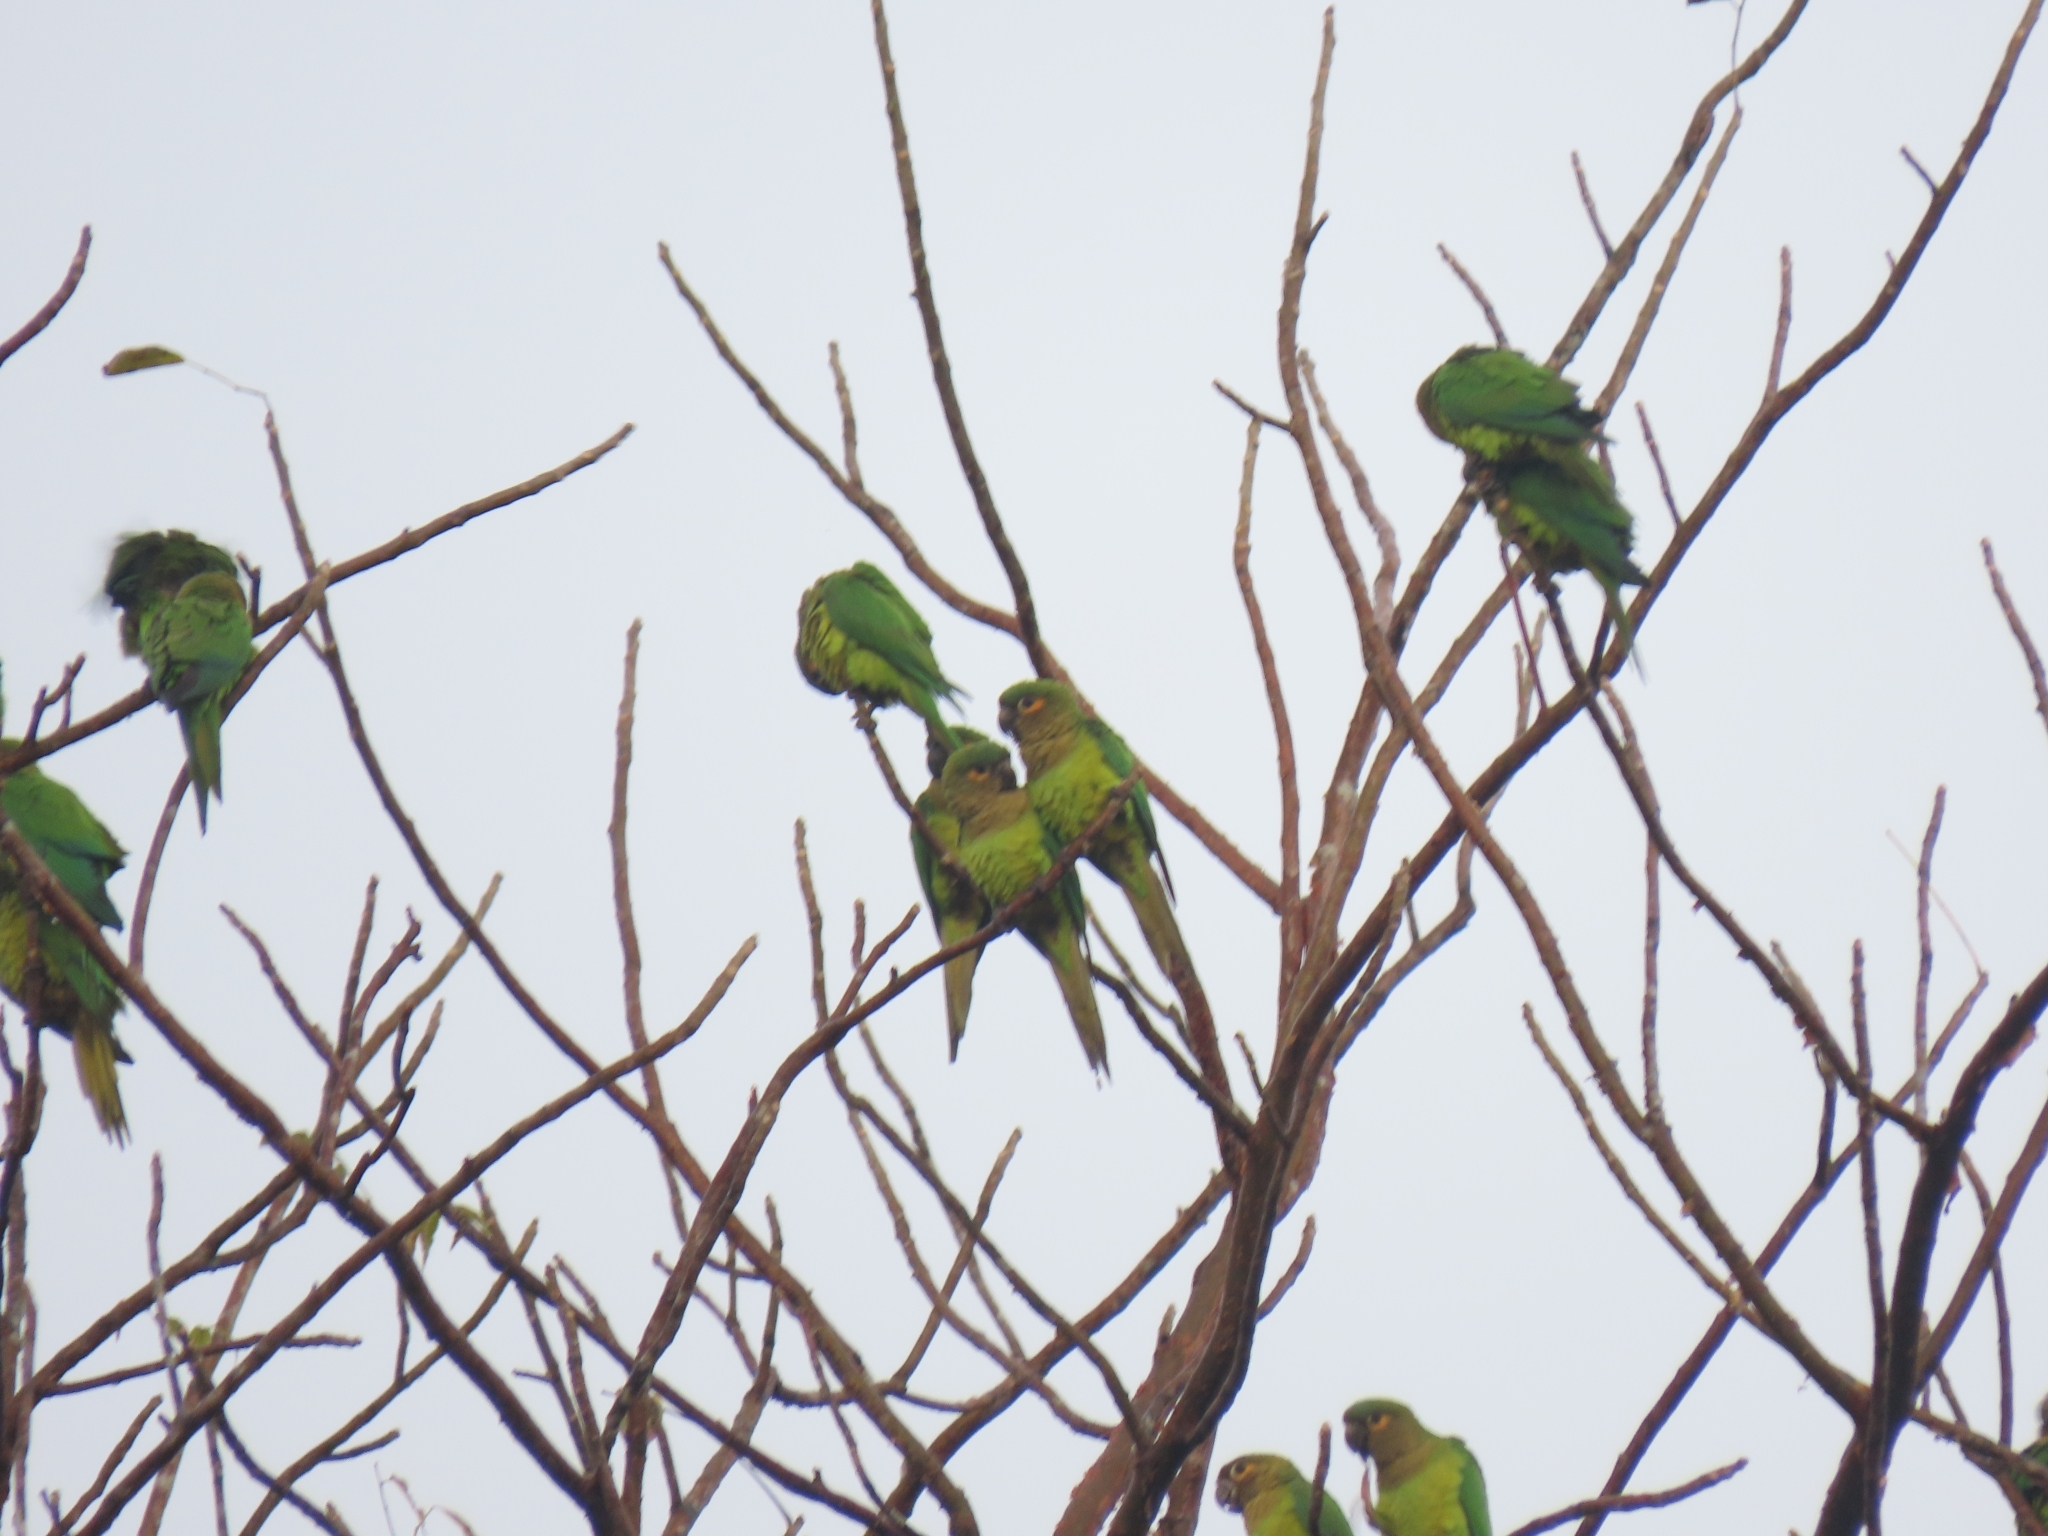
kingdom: Animalia
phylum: Chordata
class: Aves
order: Psittaciformes
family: Psittacidae
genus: Aratinga
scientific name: Aratinga pertinax
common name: Brown-throated parakeet
